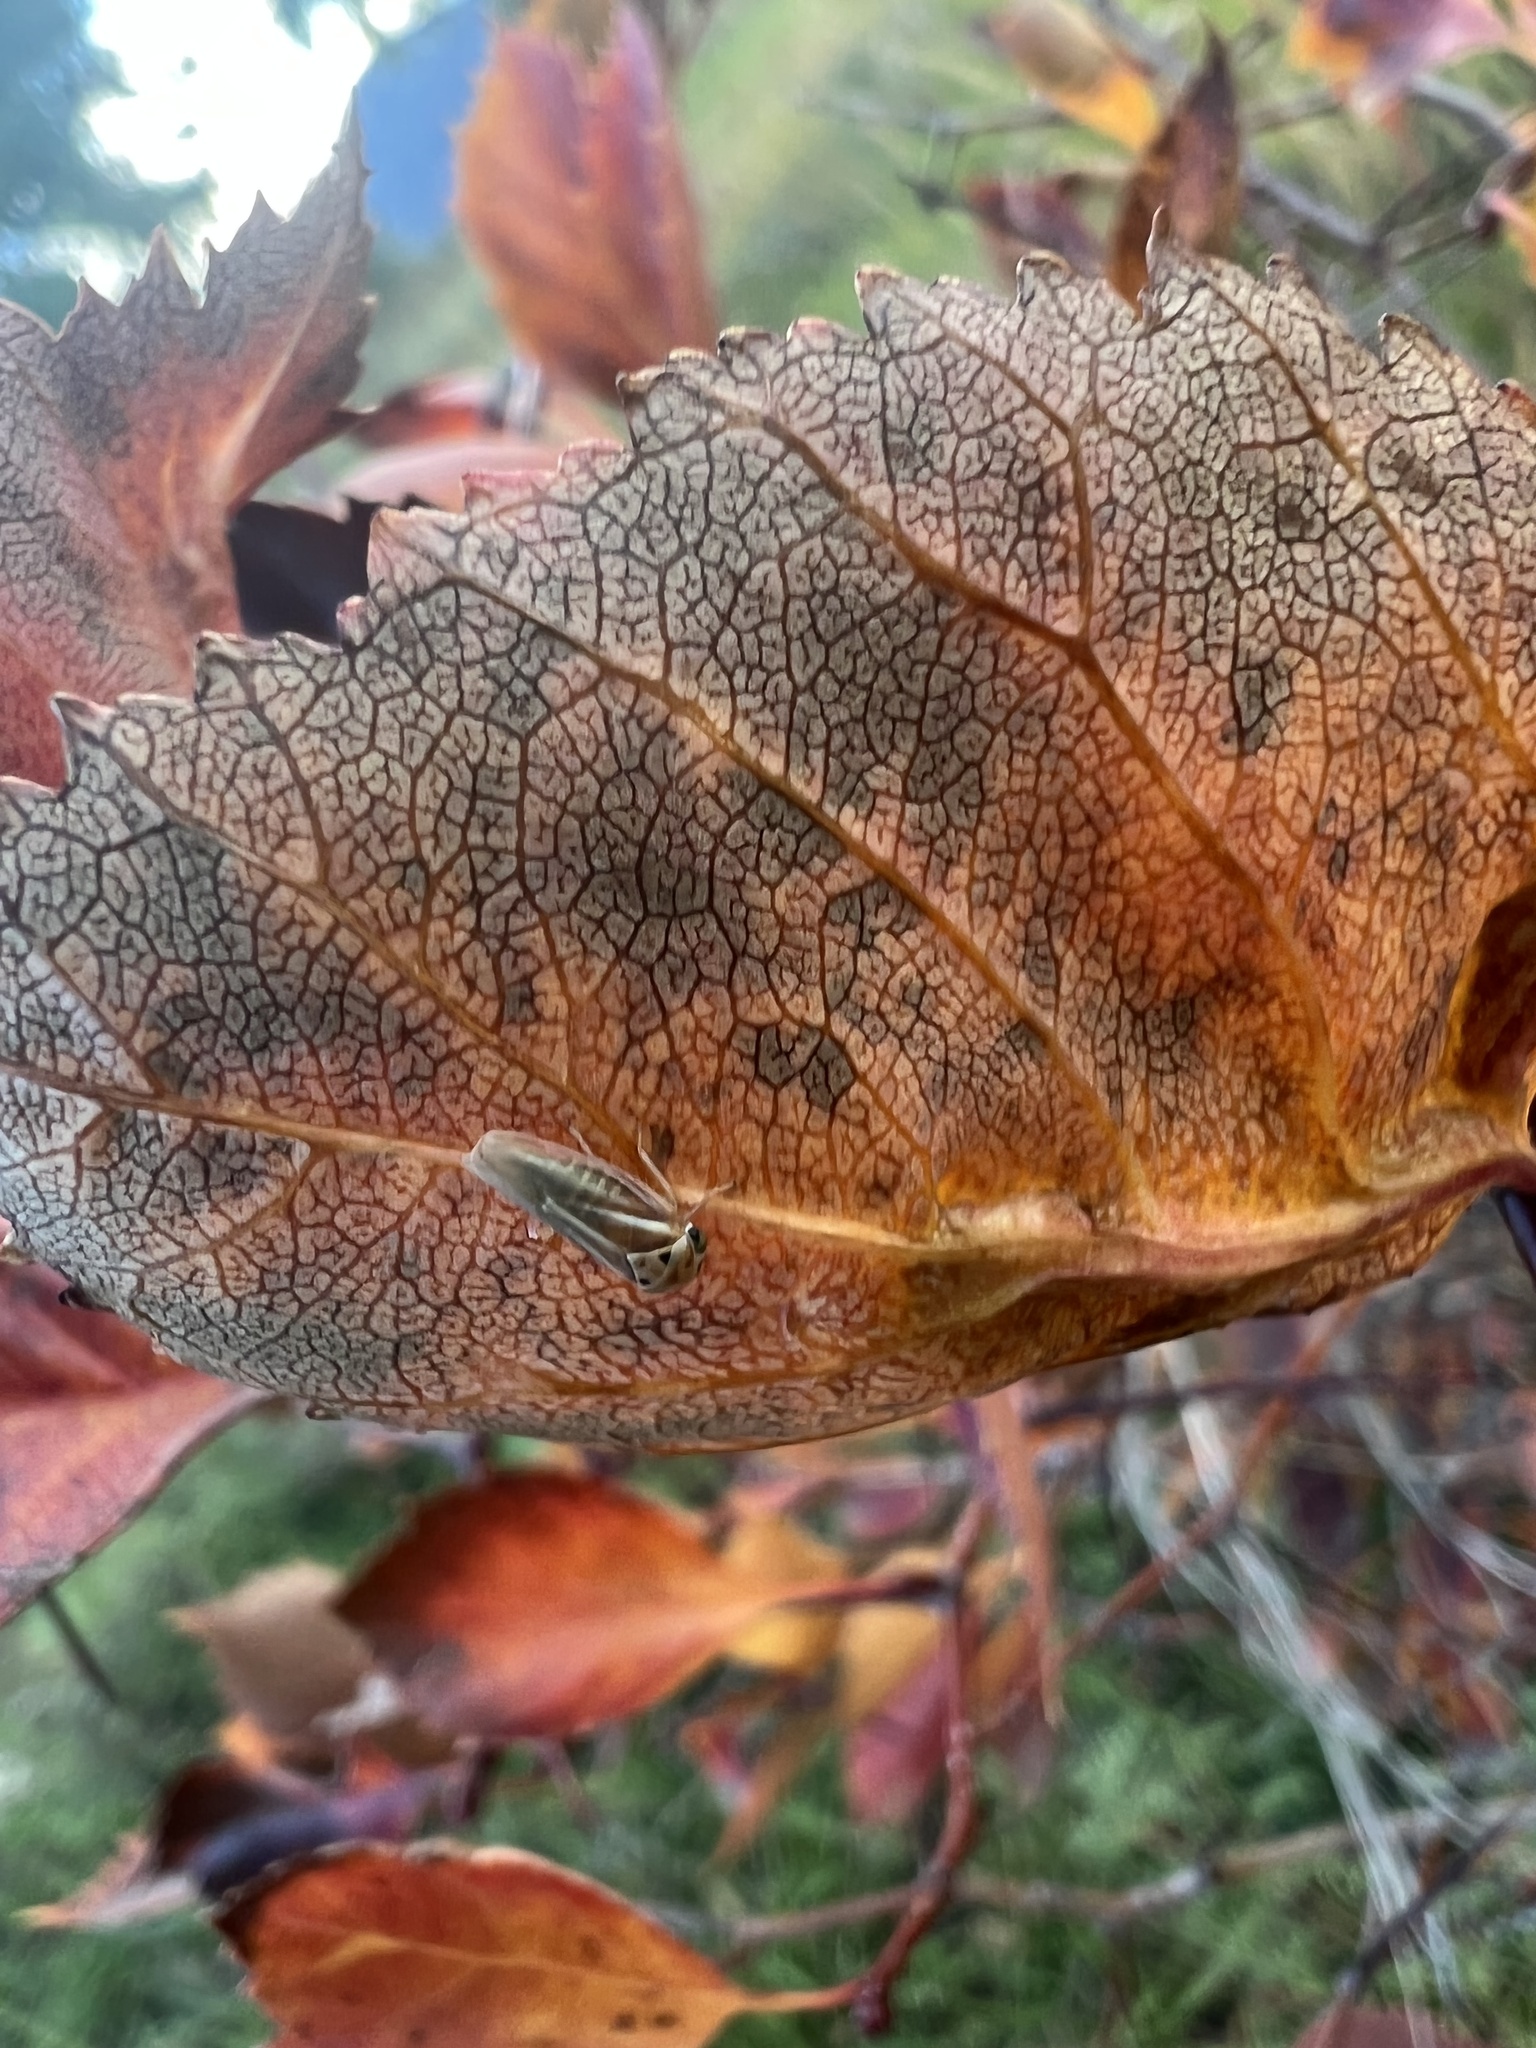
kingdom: Animalia
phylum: Arthropoda
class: Insecta
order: Hemiptera
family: Cicadellidae
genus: Balcanocerus
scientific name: Balcanocerus crataegi
